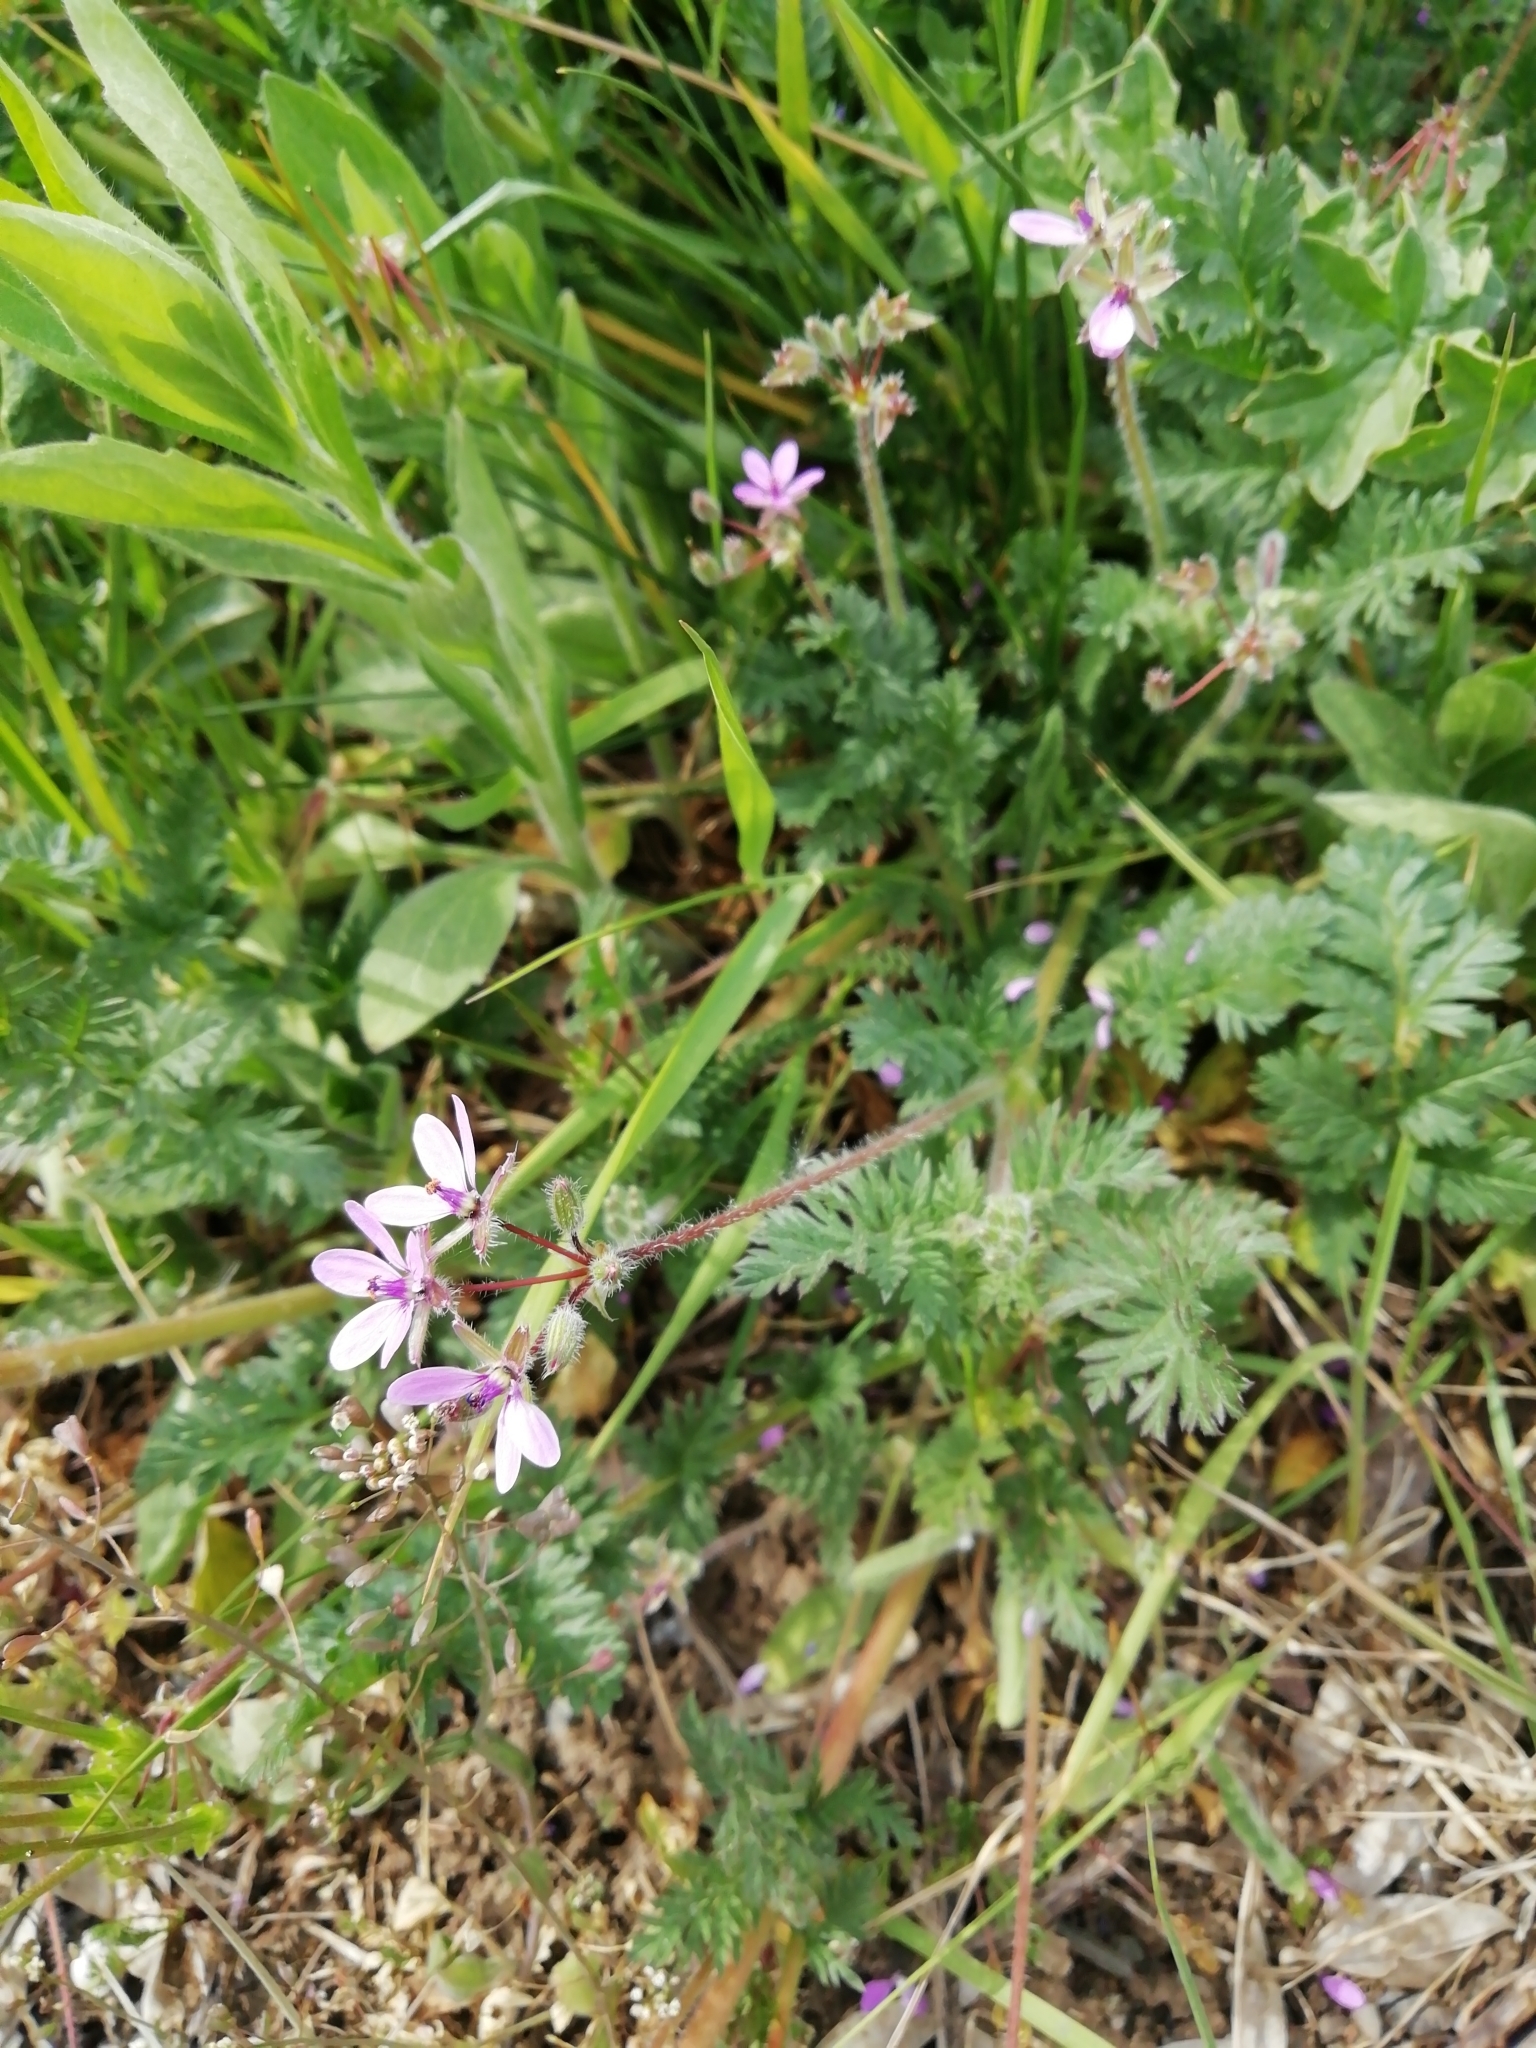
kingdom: Plantae
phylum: Tracheophyta
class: Magnoliopsida
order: Geraniales
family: Geraniaceae
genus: Erodium
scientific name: Erodium cicutarium
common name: Common stork's-bill
